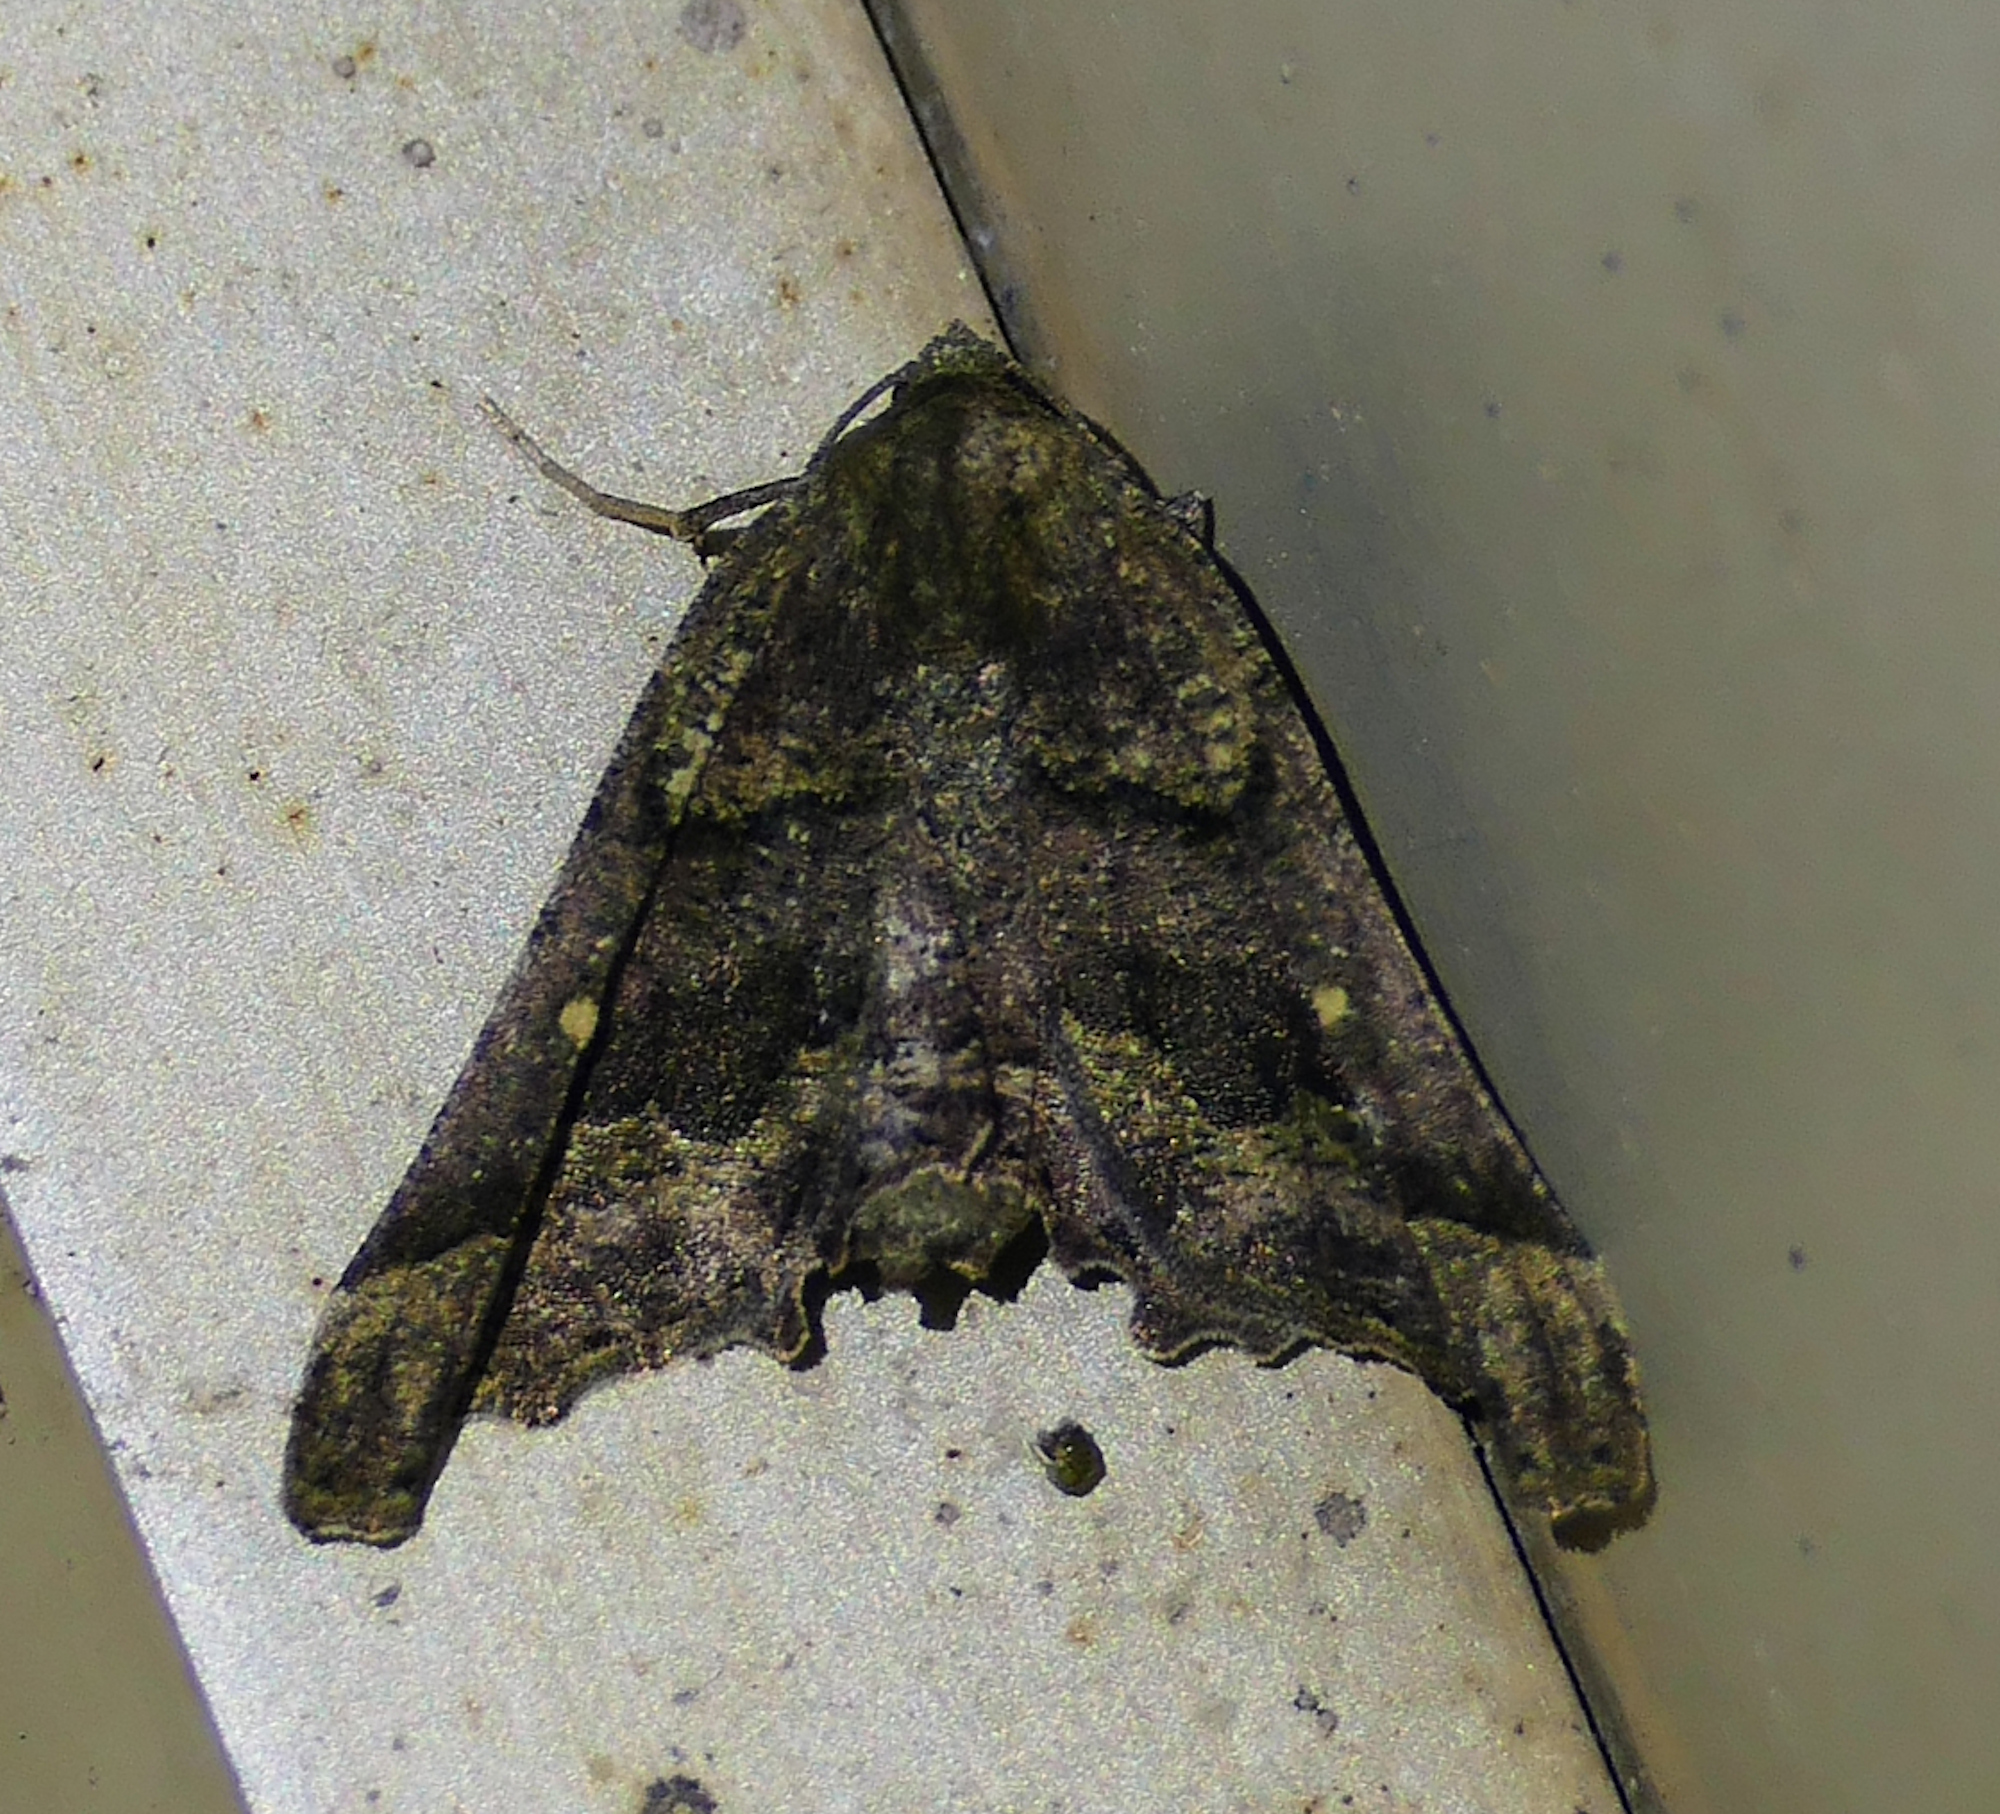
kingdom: Animalia
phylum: Arthropoda
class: Insecta
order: Lepidoptera
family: Geometridae
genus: Pero
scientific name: Pero meskaria
